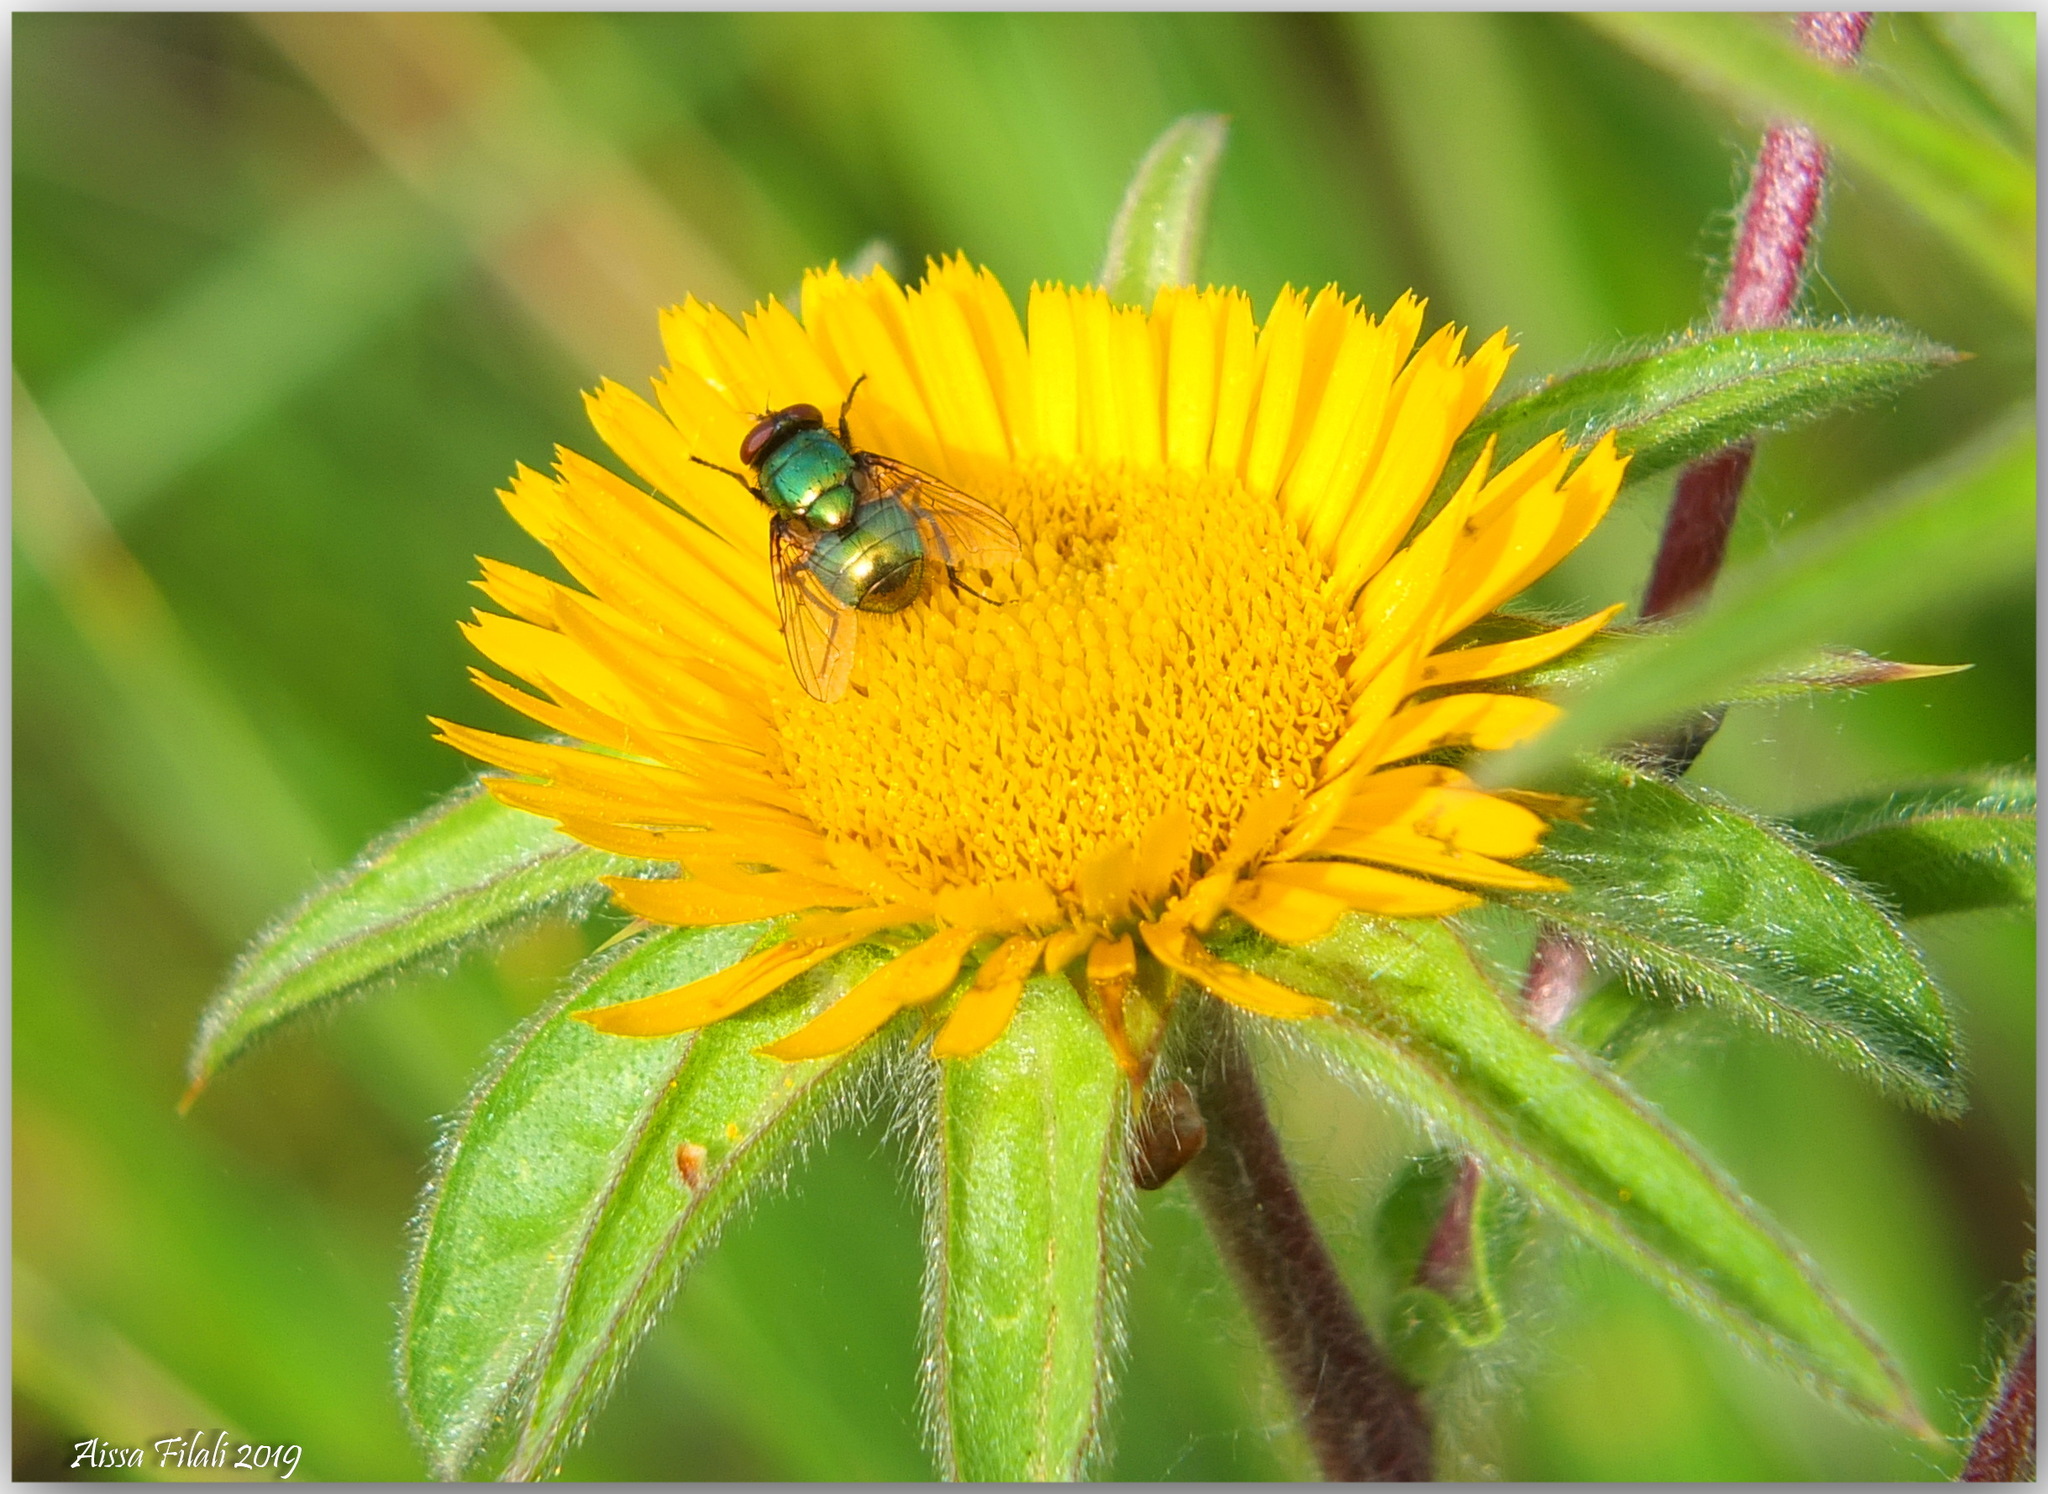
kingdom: Animalia
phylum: Arthropoda
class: Insecta
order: Diptera
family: Calliphoridae
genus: Lucilia
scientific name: Lucilia sericata
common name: Blow fly
